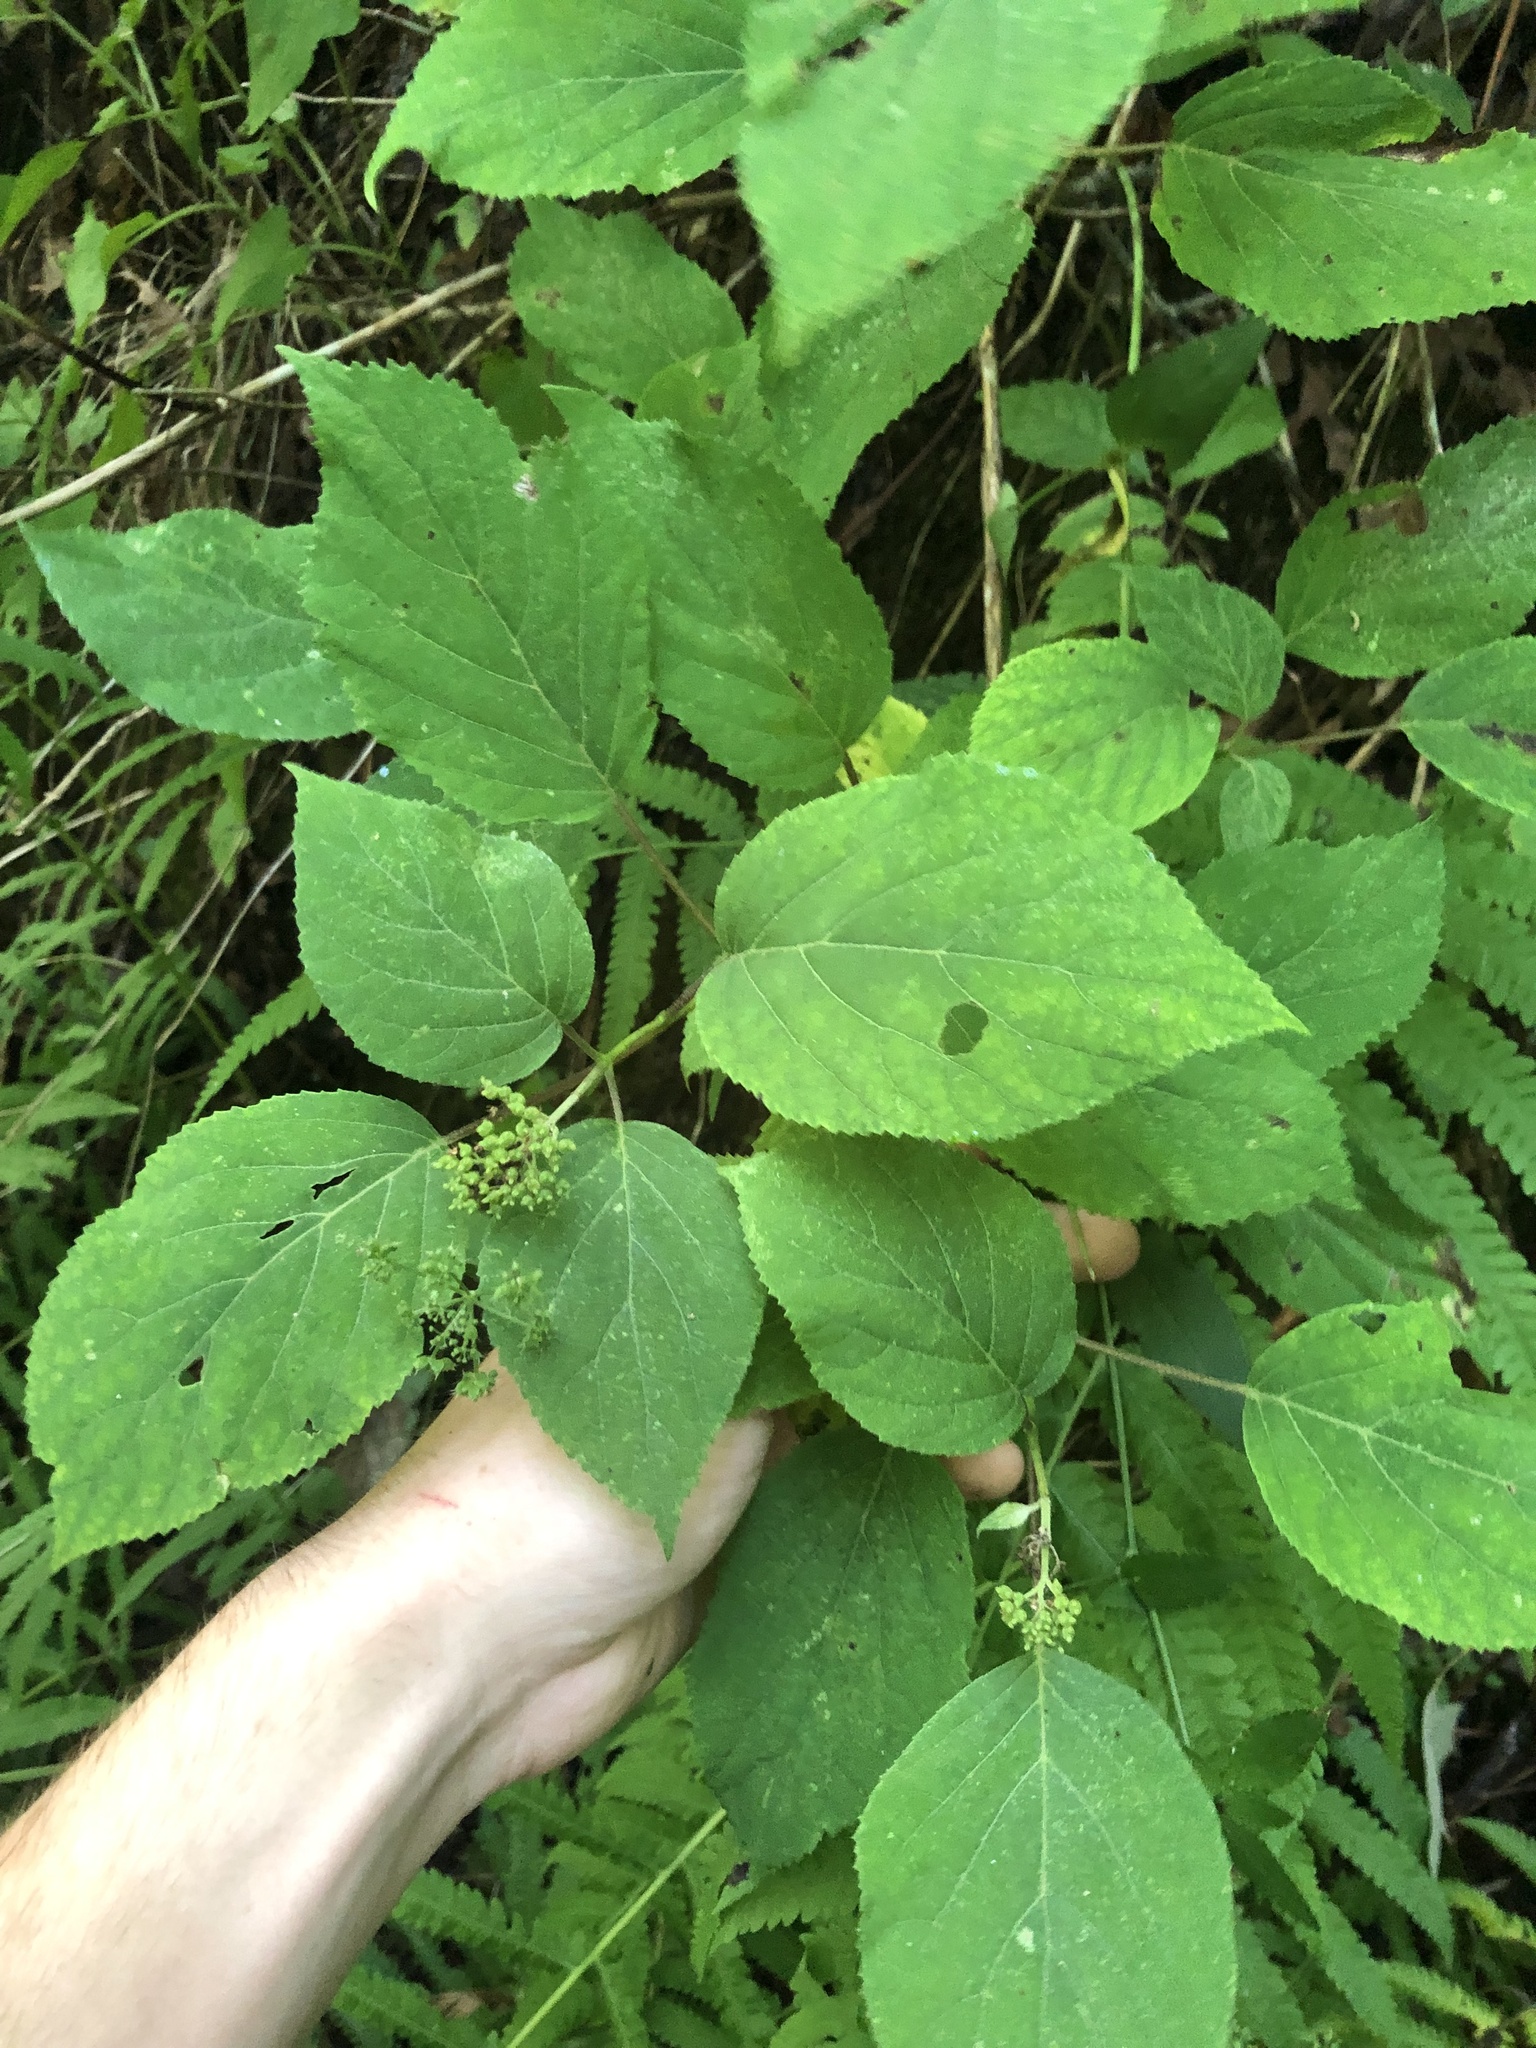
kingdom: Plantae
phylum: Tracheophyta
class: Magnoliopsida
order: Cornales
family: Hydrangeaceae
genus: Hydrangea
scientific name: Hydrangea arborescens
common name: Sevenbark
